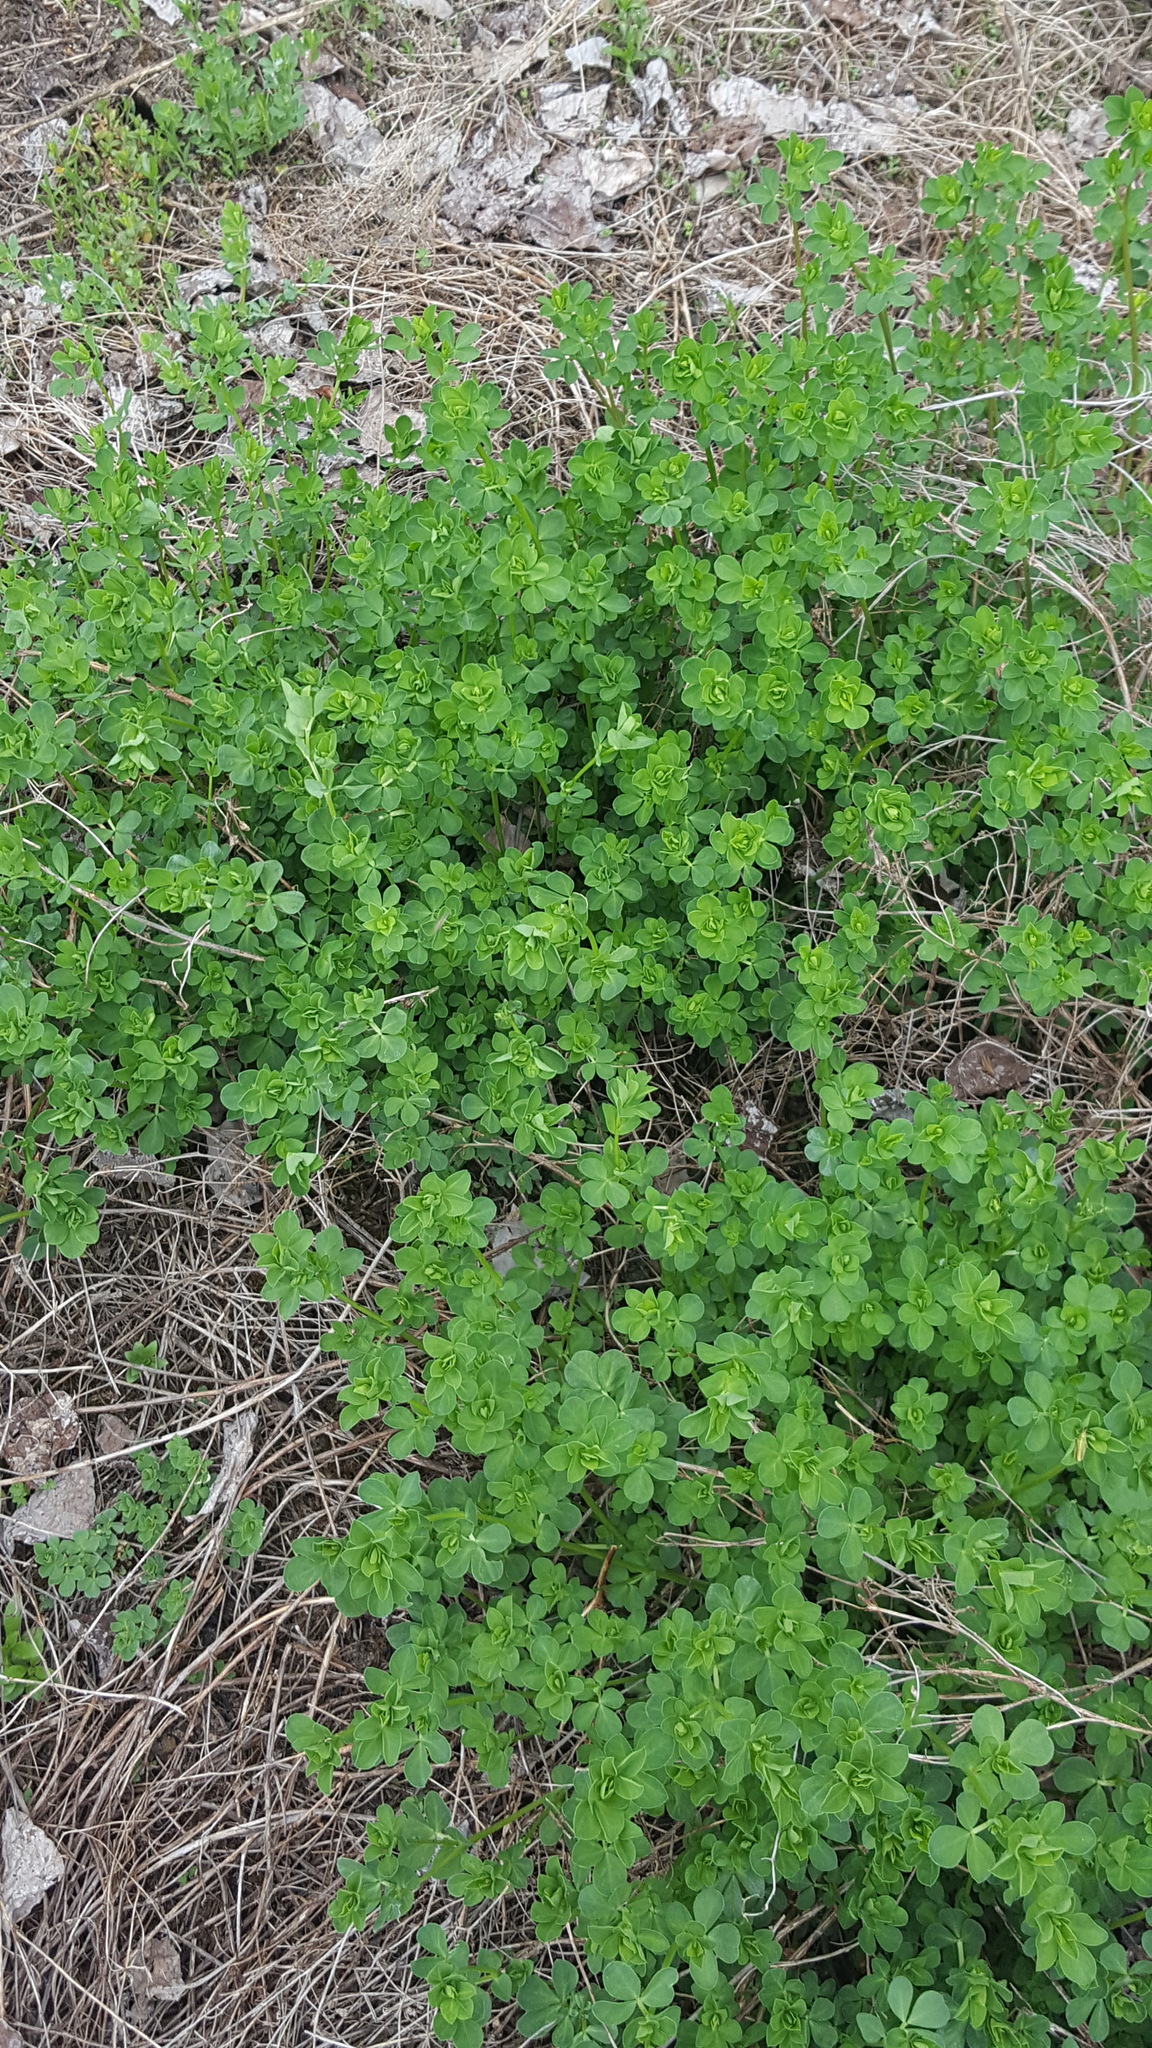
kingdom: Plantae
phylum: Tracheophyta
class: Magnoliopsida
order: Fabales
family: Fabaceae
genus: Lotus
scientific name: Lotus corniculatus
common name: Common bird's-foot-trefoil
